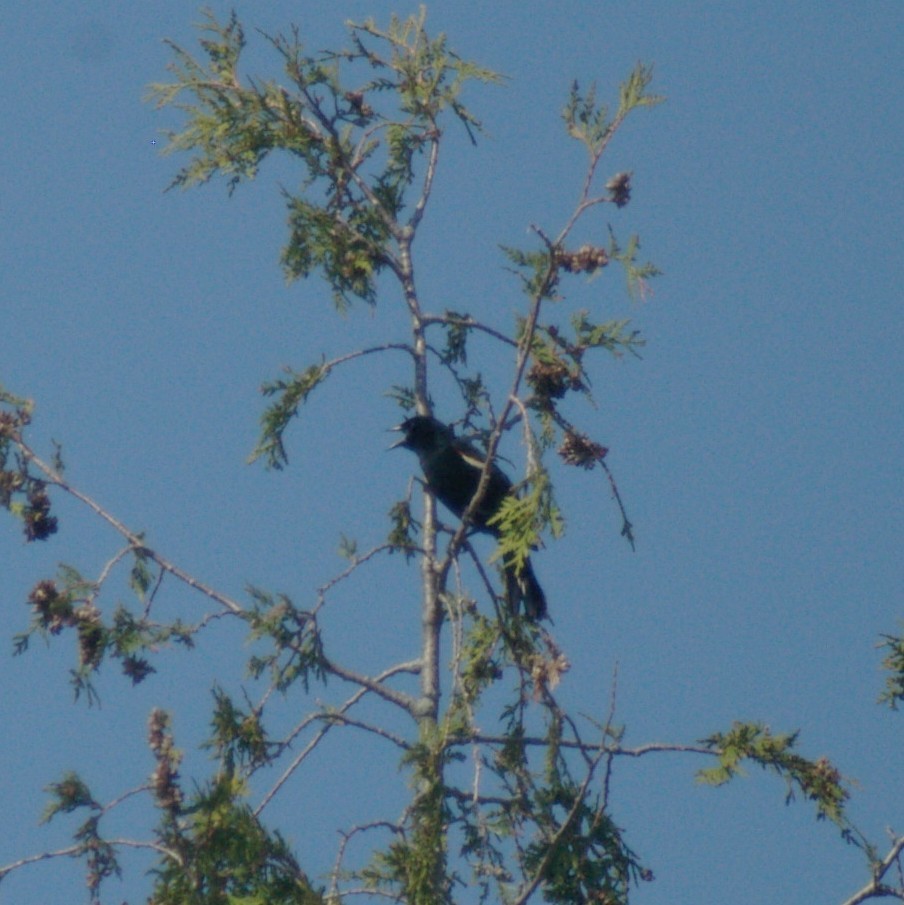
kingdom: Animalia
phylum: Chordata
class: Aves
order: Passeriformes
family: Icteridae
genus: Agelaius
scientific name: Agelaius phoeniceus
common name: Red-winged blackbird
